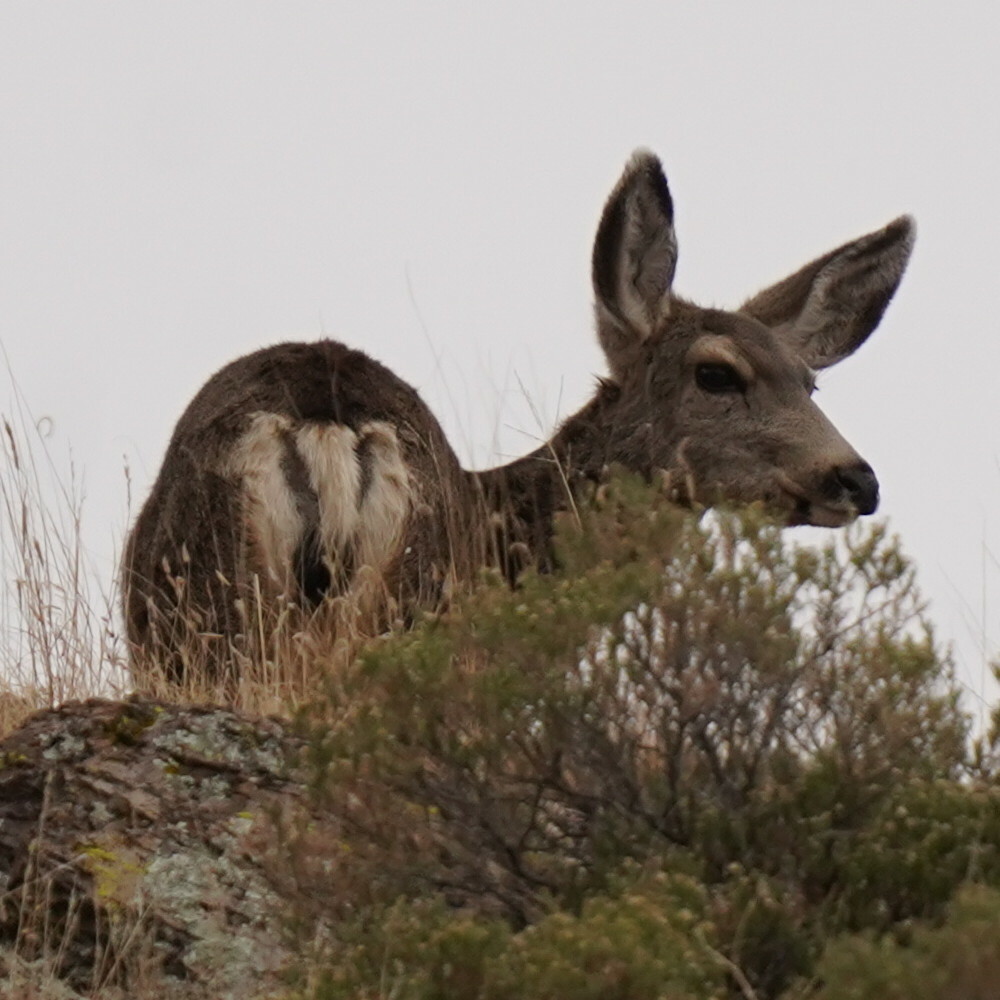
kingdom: Animalia
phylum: Chordata
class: Mammalia
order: Artiodactyla
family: Cervidae
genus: Odocoileus
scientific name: Odocoileus hemionus
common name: Mule deer
